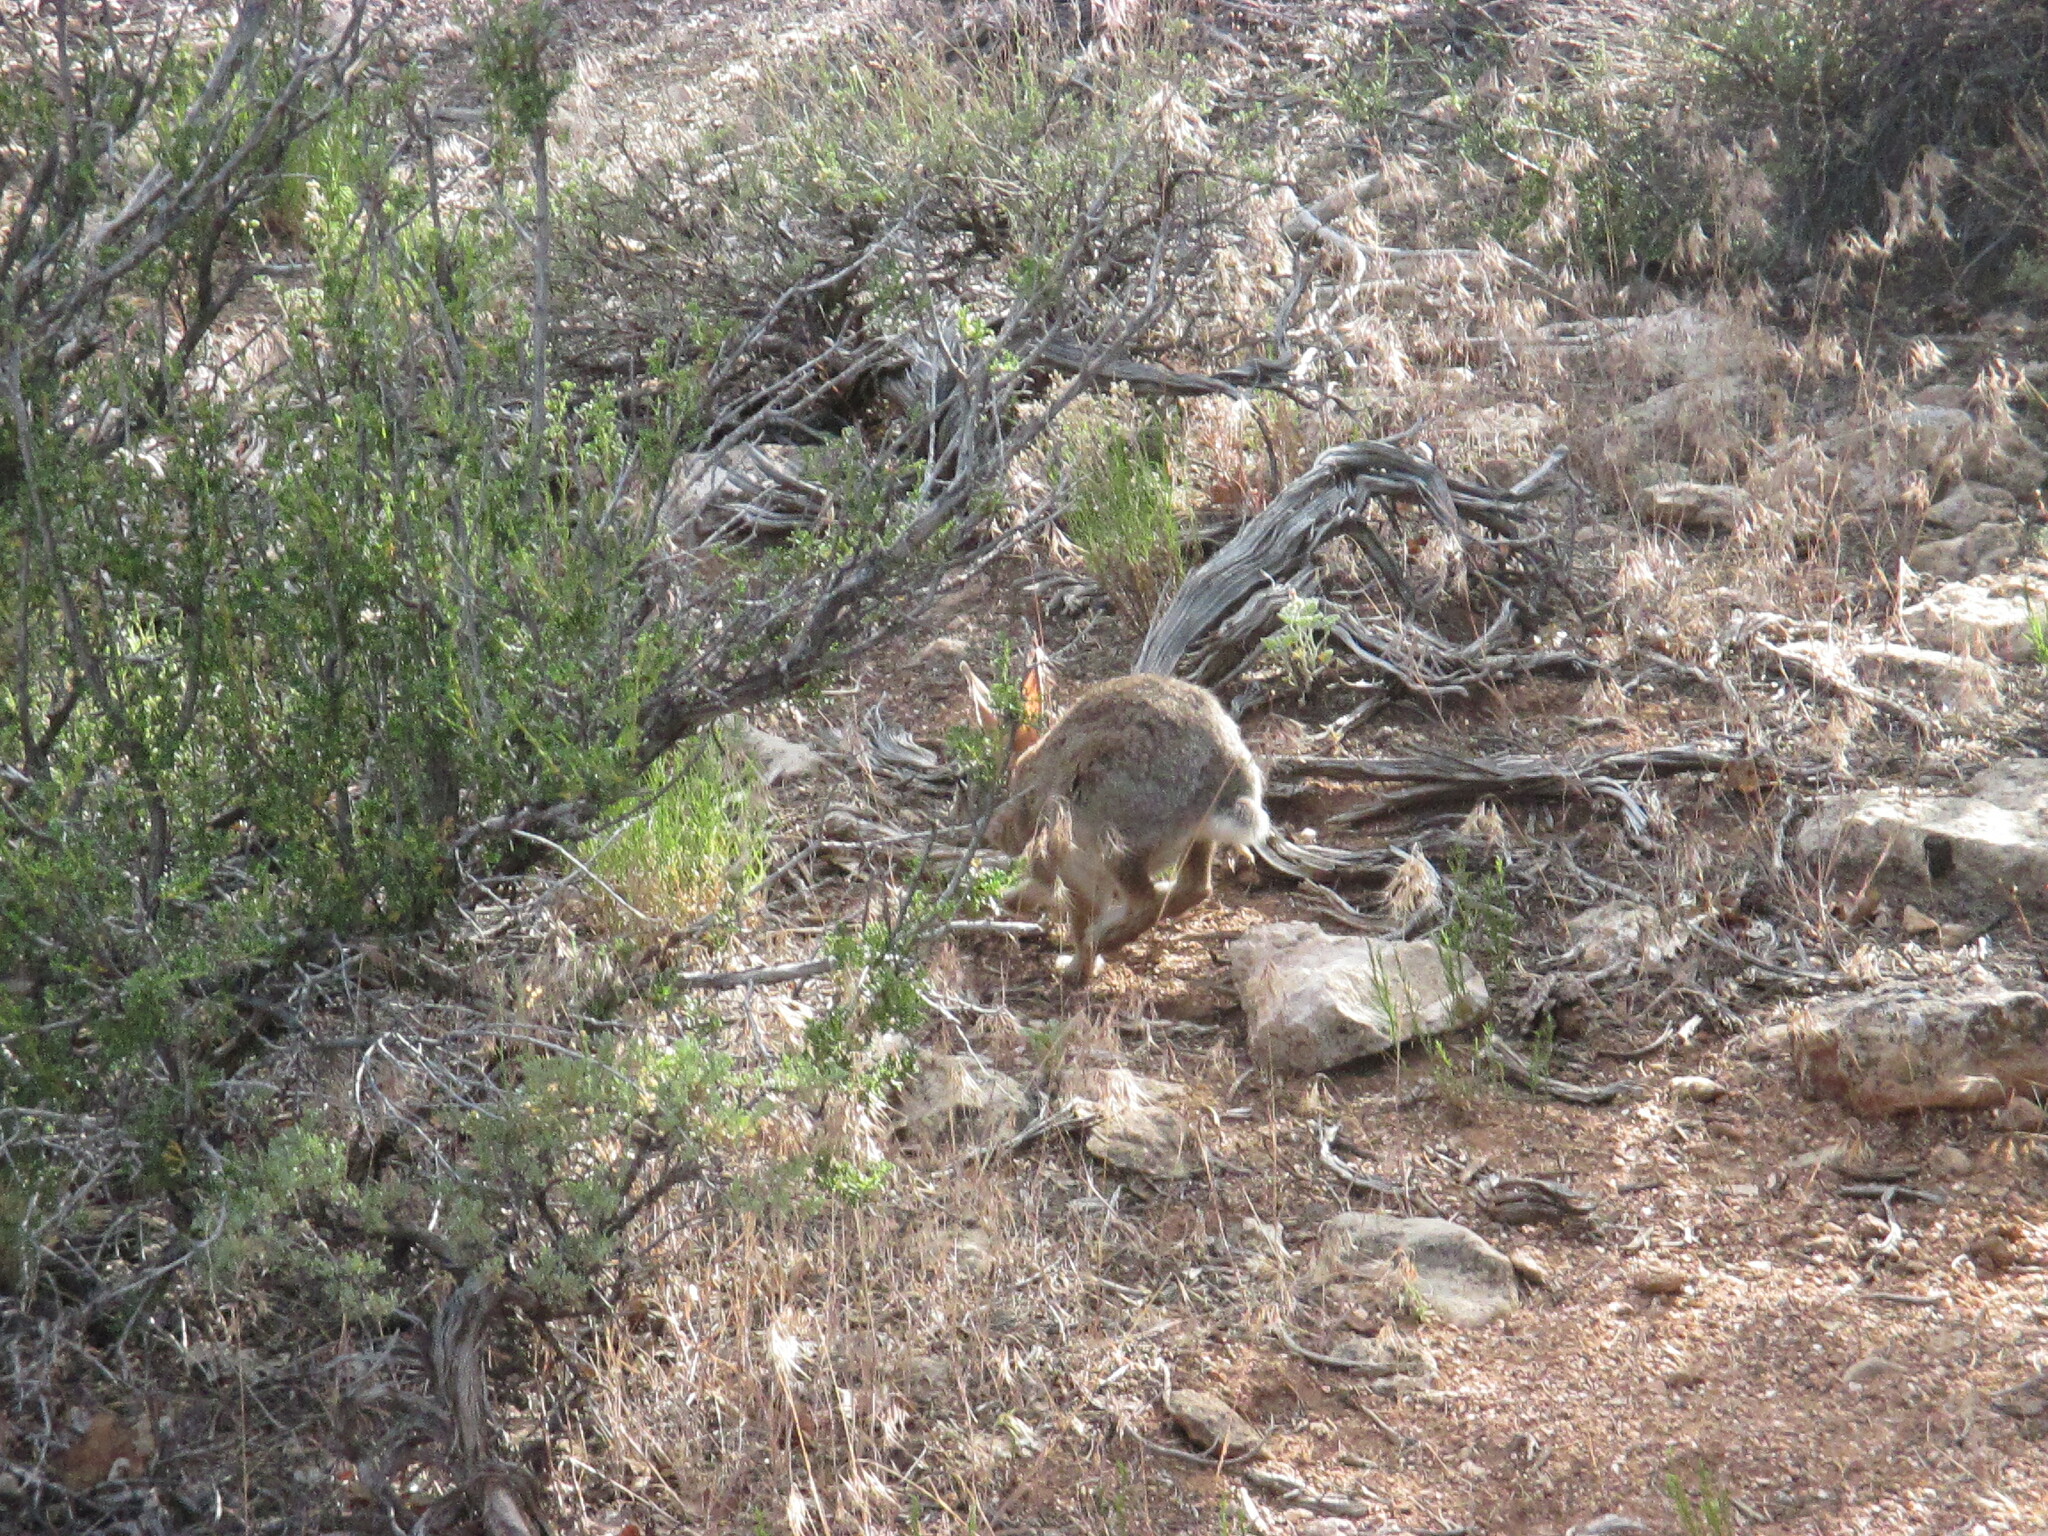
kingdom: Animalia
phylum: Chordata
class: Mammalia
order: Lagomorpha
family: Leporidae
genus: Sylvilagus
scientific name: Sylvilagus audubonii
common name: Desert cottontail
